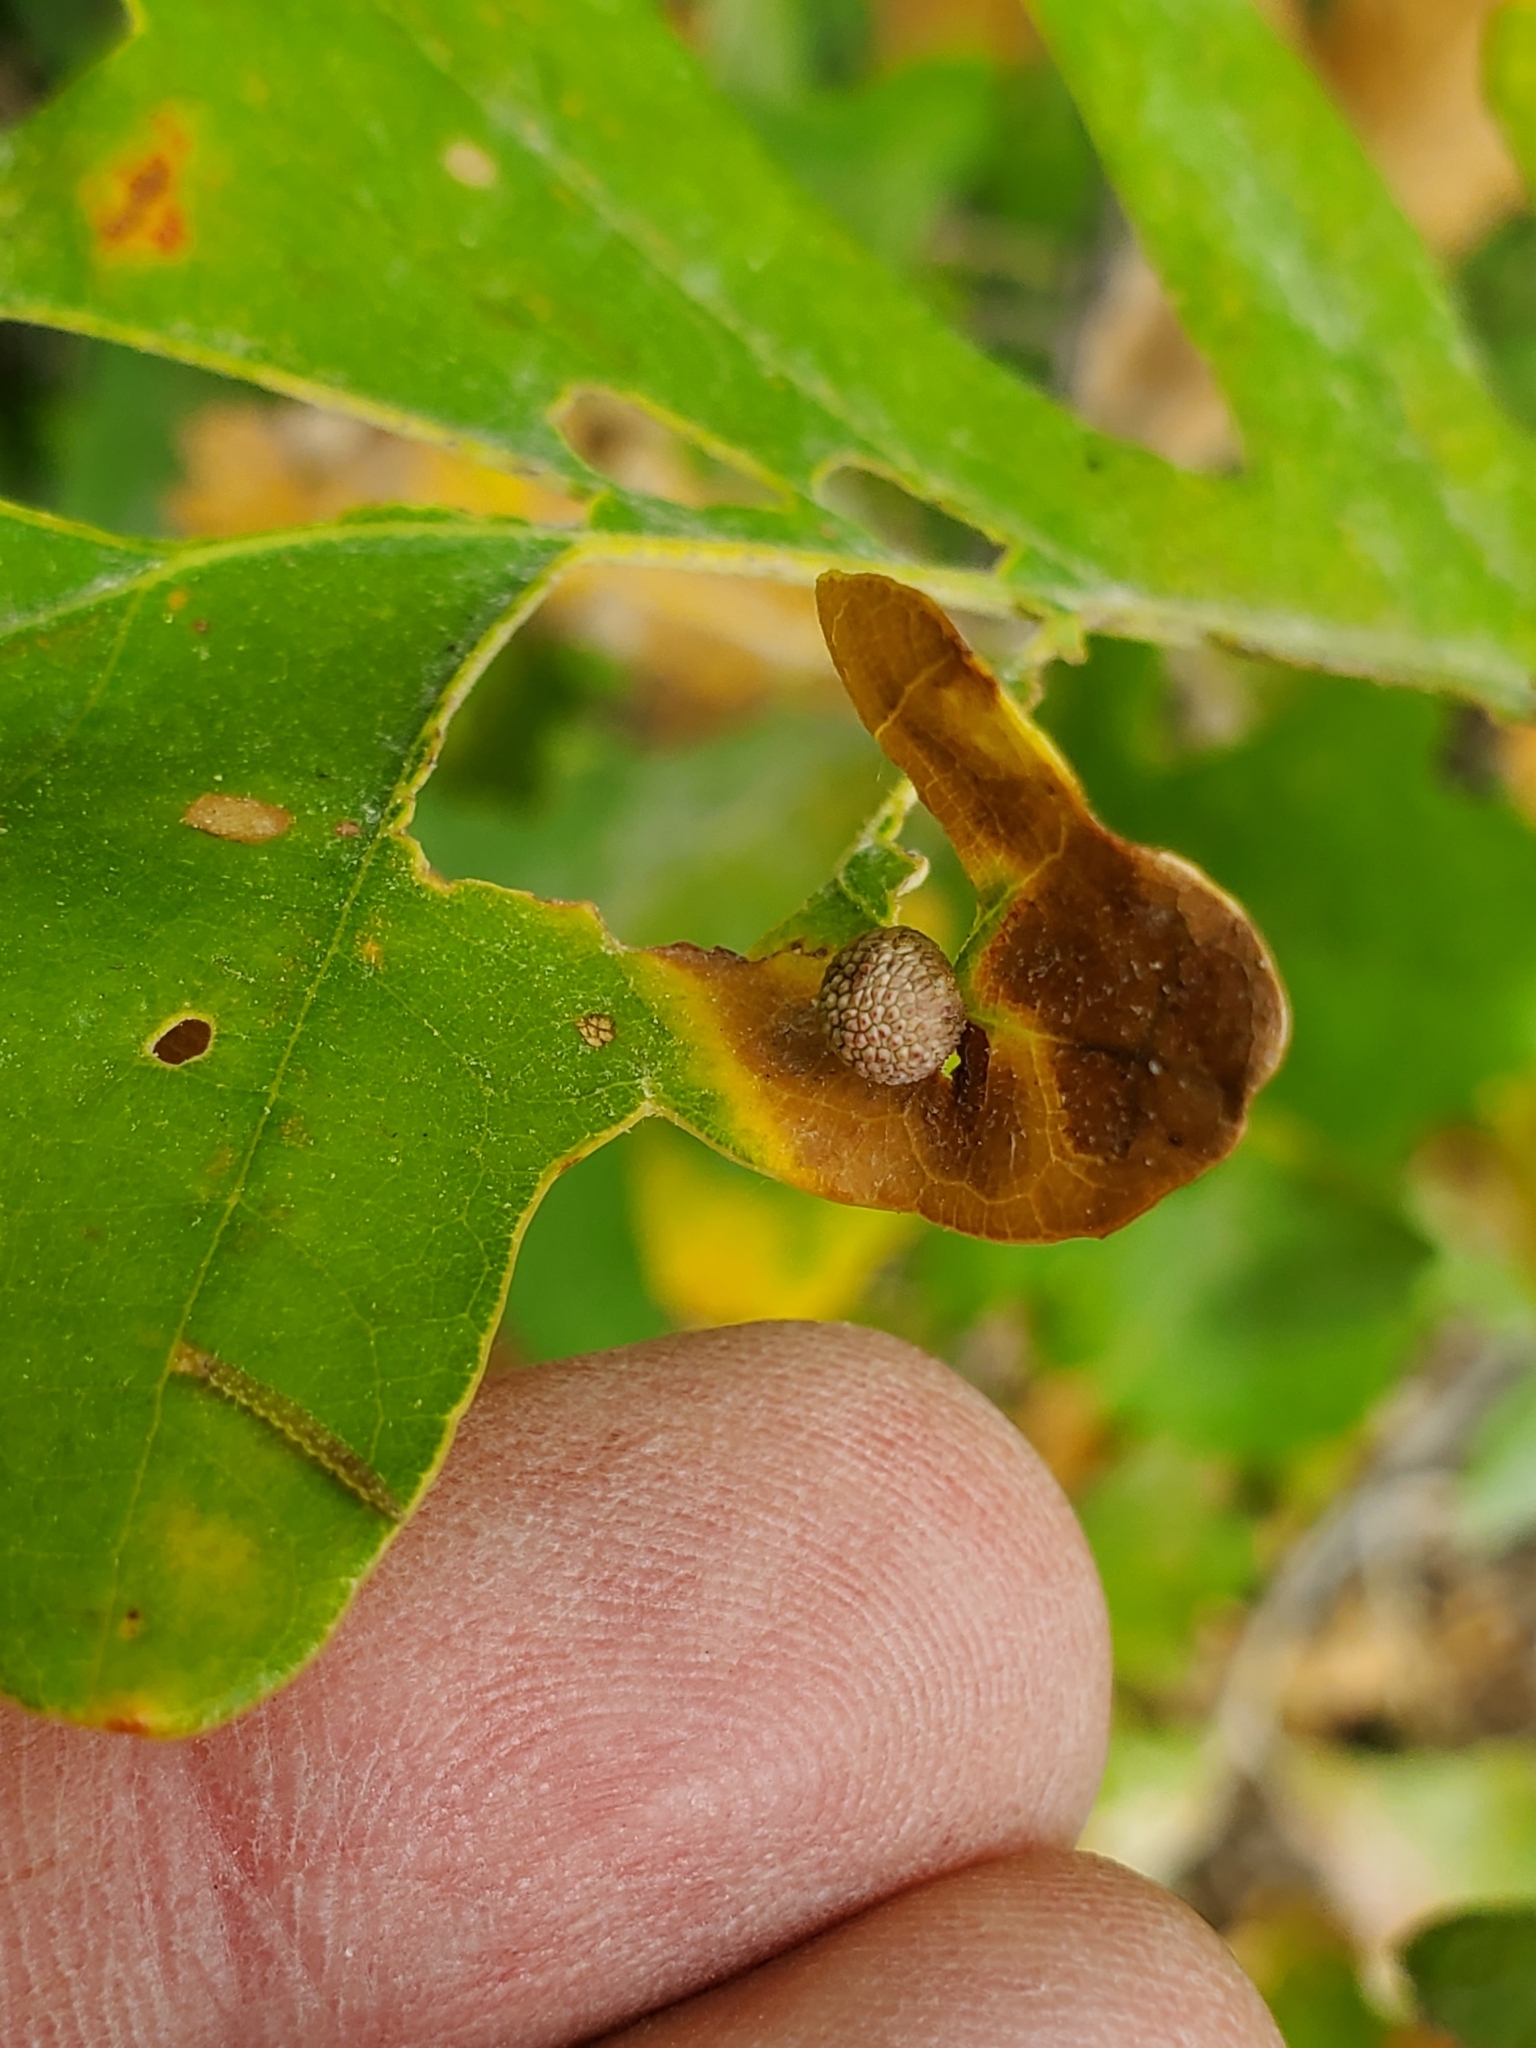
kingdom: Animalia
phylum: Arthropoda
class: Insecta
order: Hymenoptera
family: Cynipidae
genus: Acraspis
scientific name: Acraspis quercushirta
